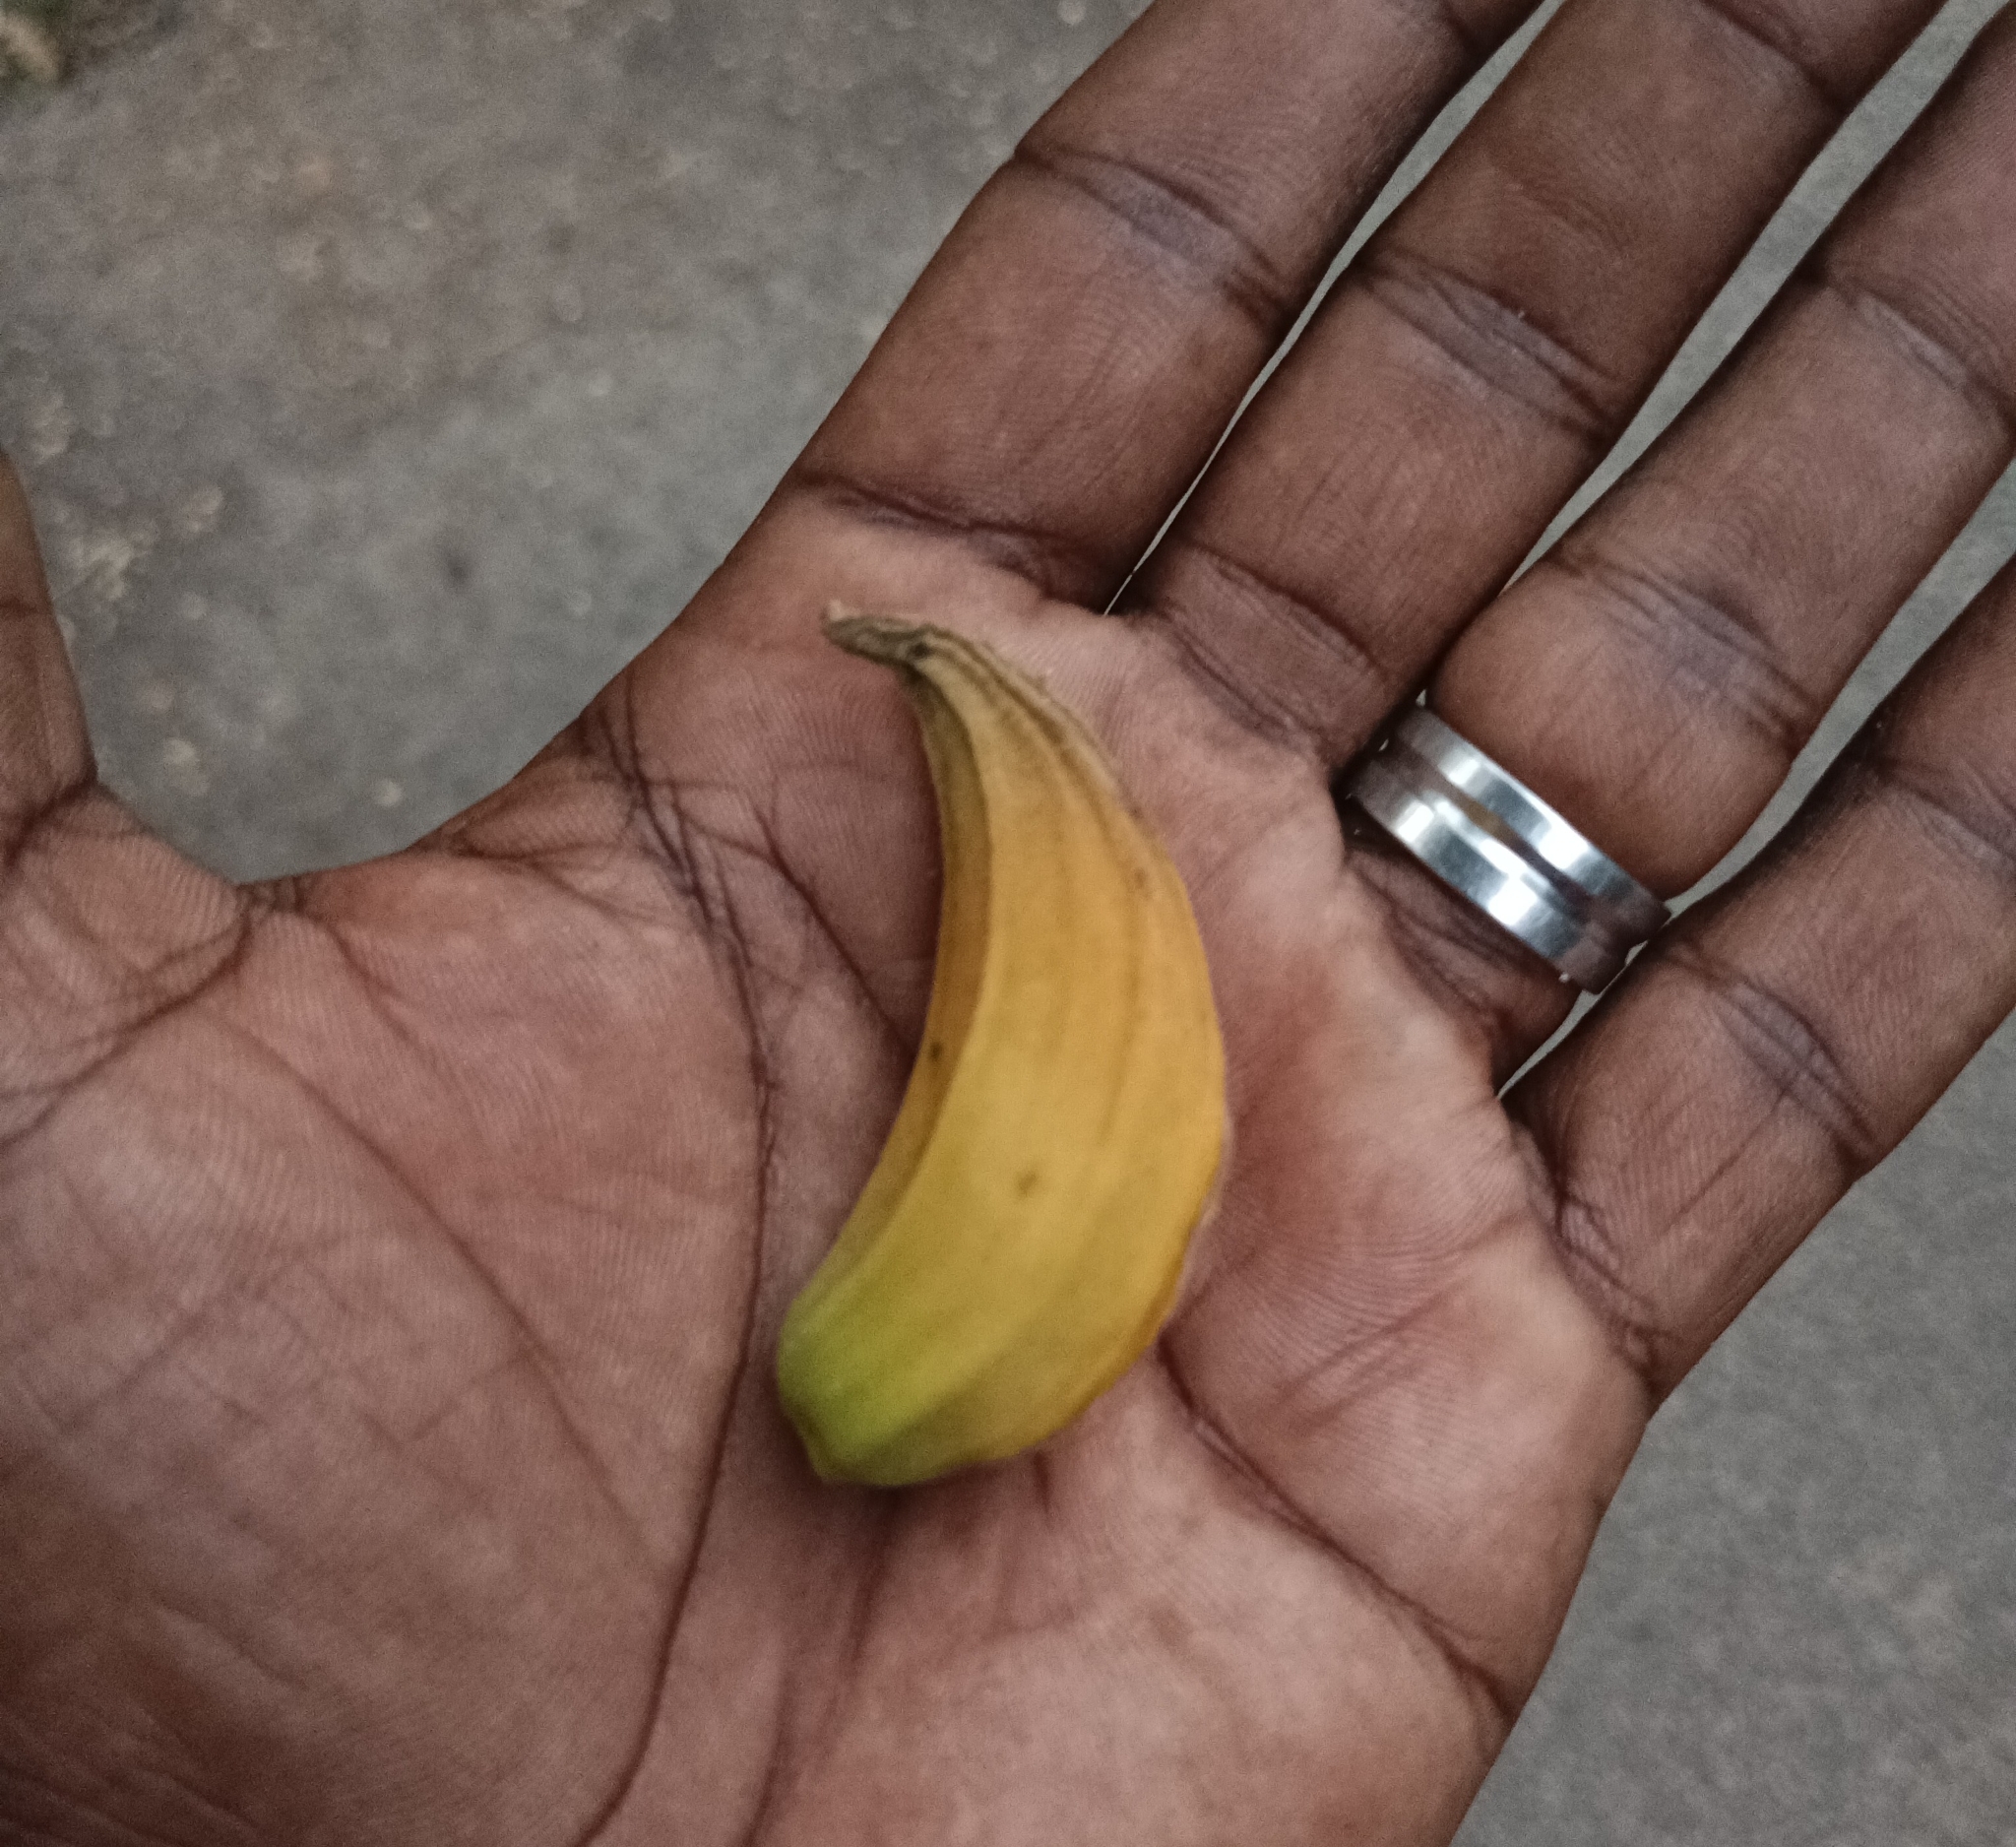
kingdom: Plantae
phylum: Tracheophyta
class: Magnoliopsida
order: Lamiales
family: Bignoniaceae
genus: Spathodea
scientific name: Spathodea campanulata
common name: African tuliptree
